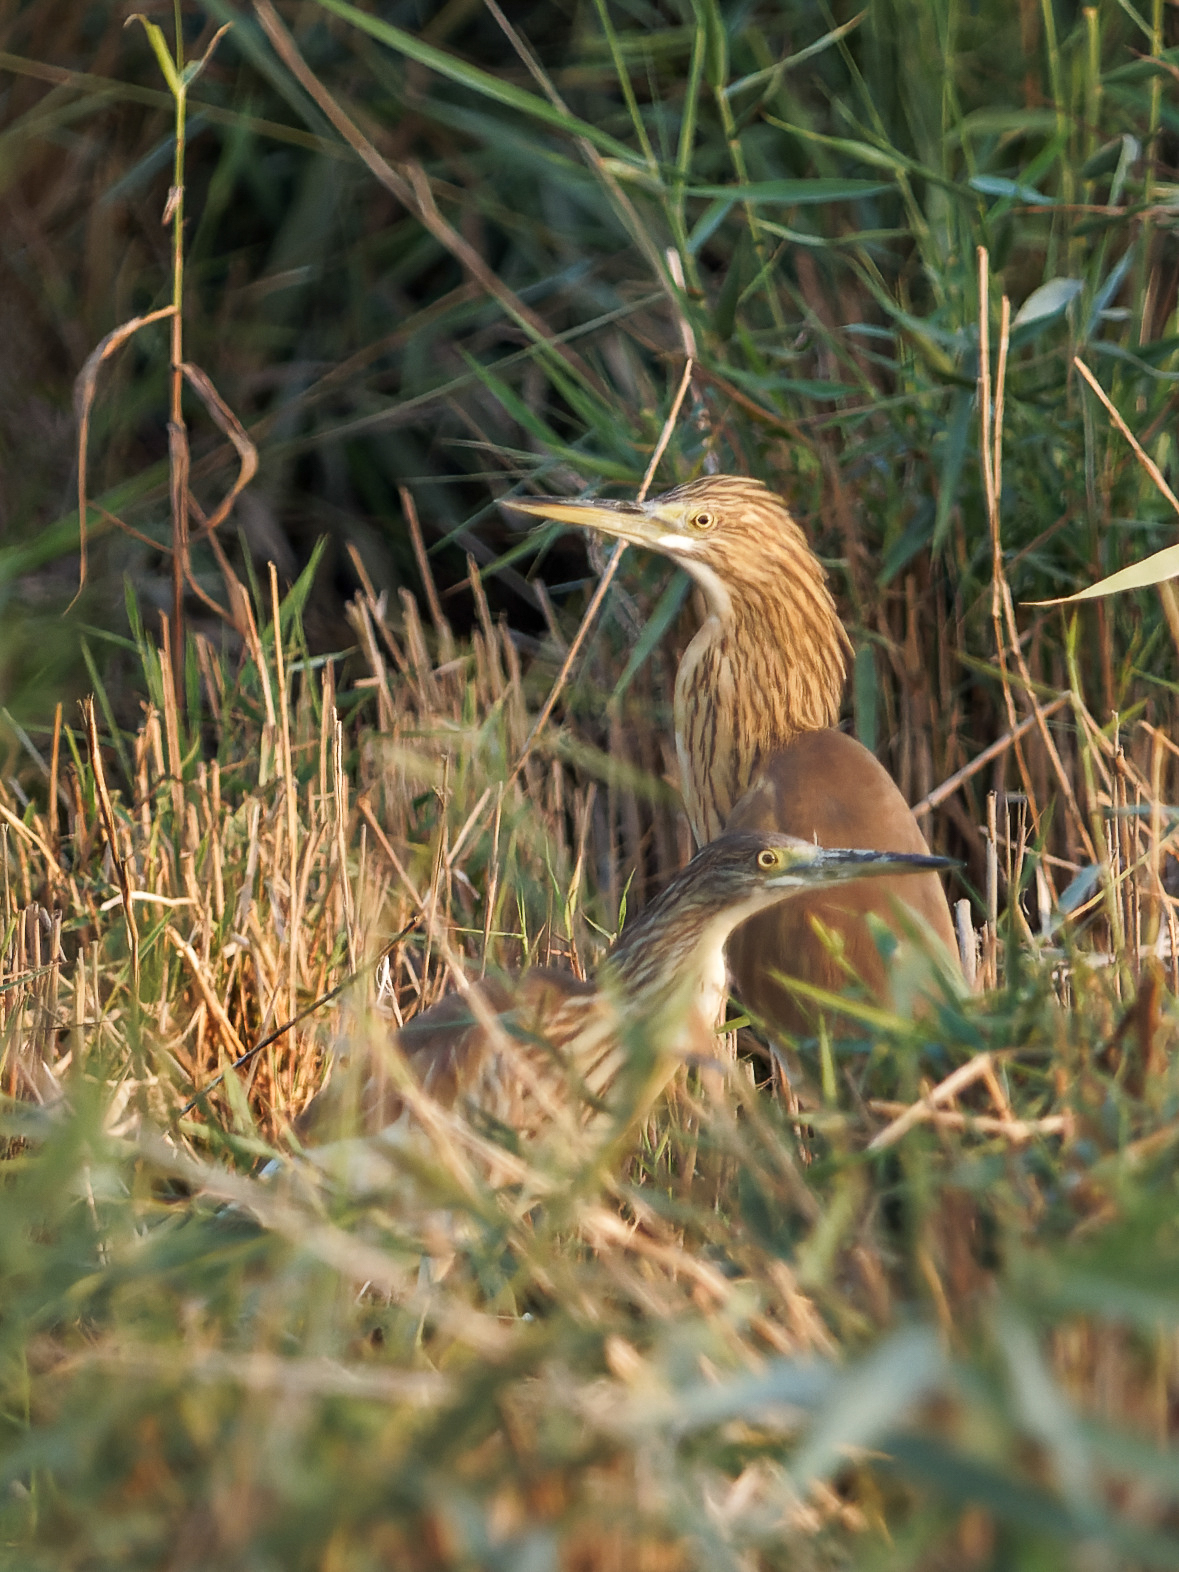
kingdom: Animalia
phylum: Chordata
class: Aves
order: Pelecaniformes
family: Ardeidae
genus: Ardeola
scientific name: Ardeola ralloides
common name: Squacco heron
